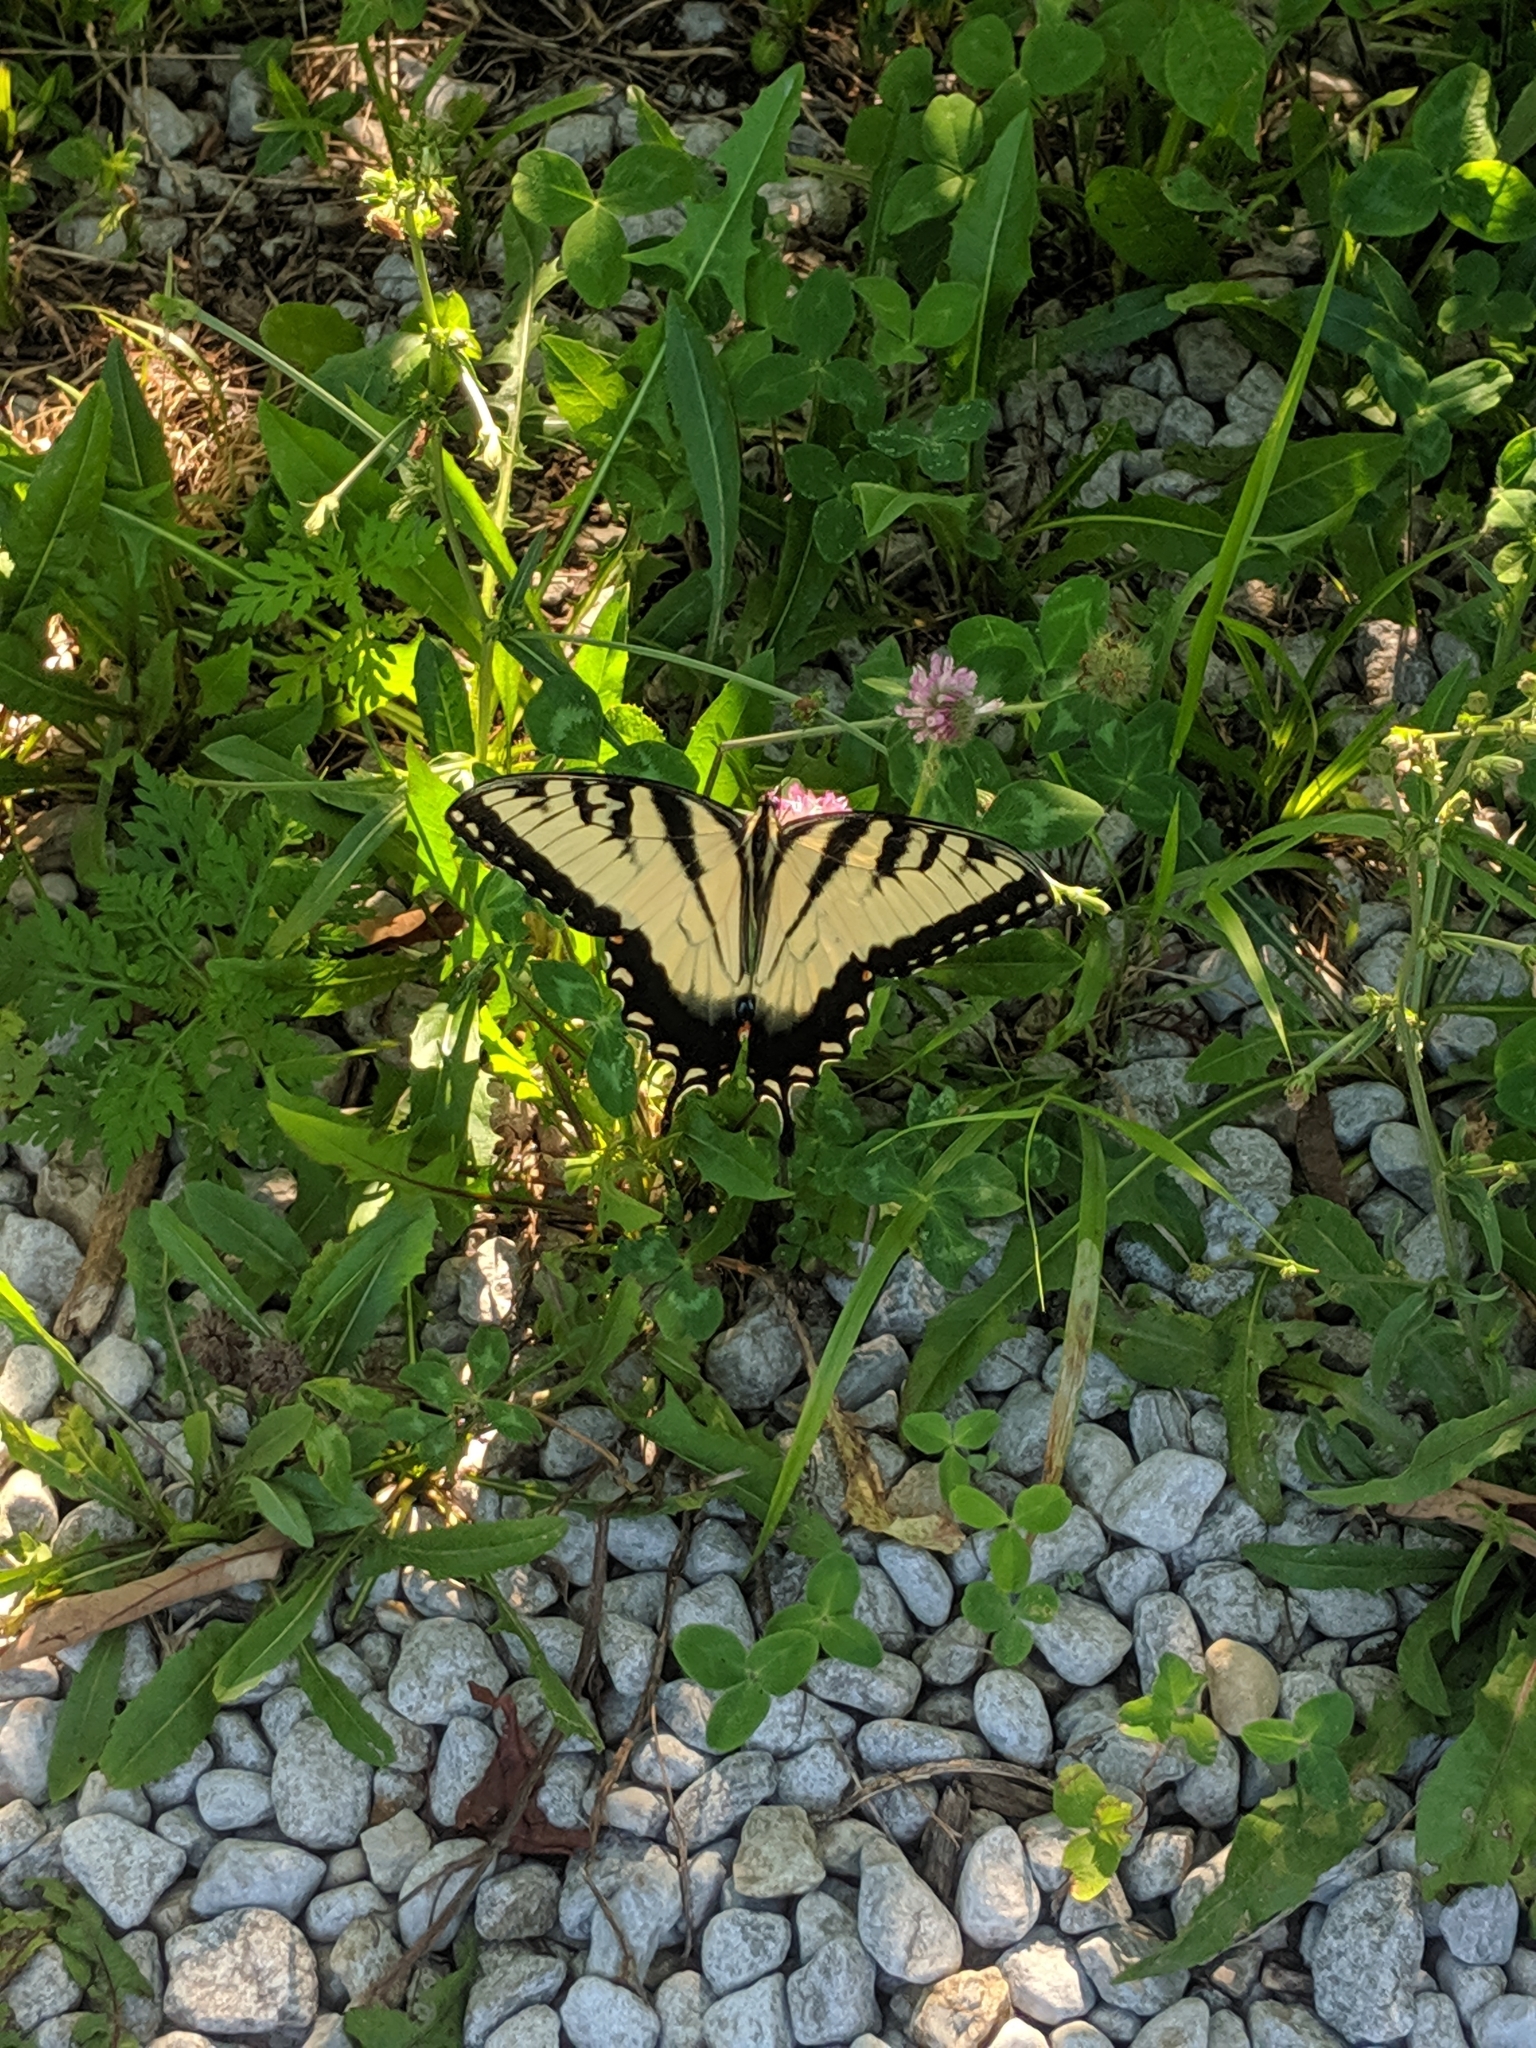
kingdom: Animalia
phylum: Arthropoda
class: Insecta
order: Lepidoptera
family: Papilionidae
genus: Papilio
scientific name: Papilio glaucus
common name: Tiger swallowtail
